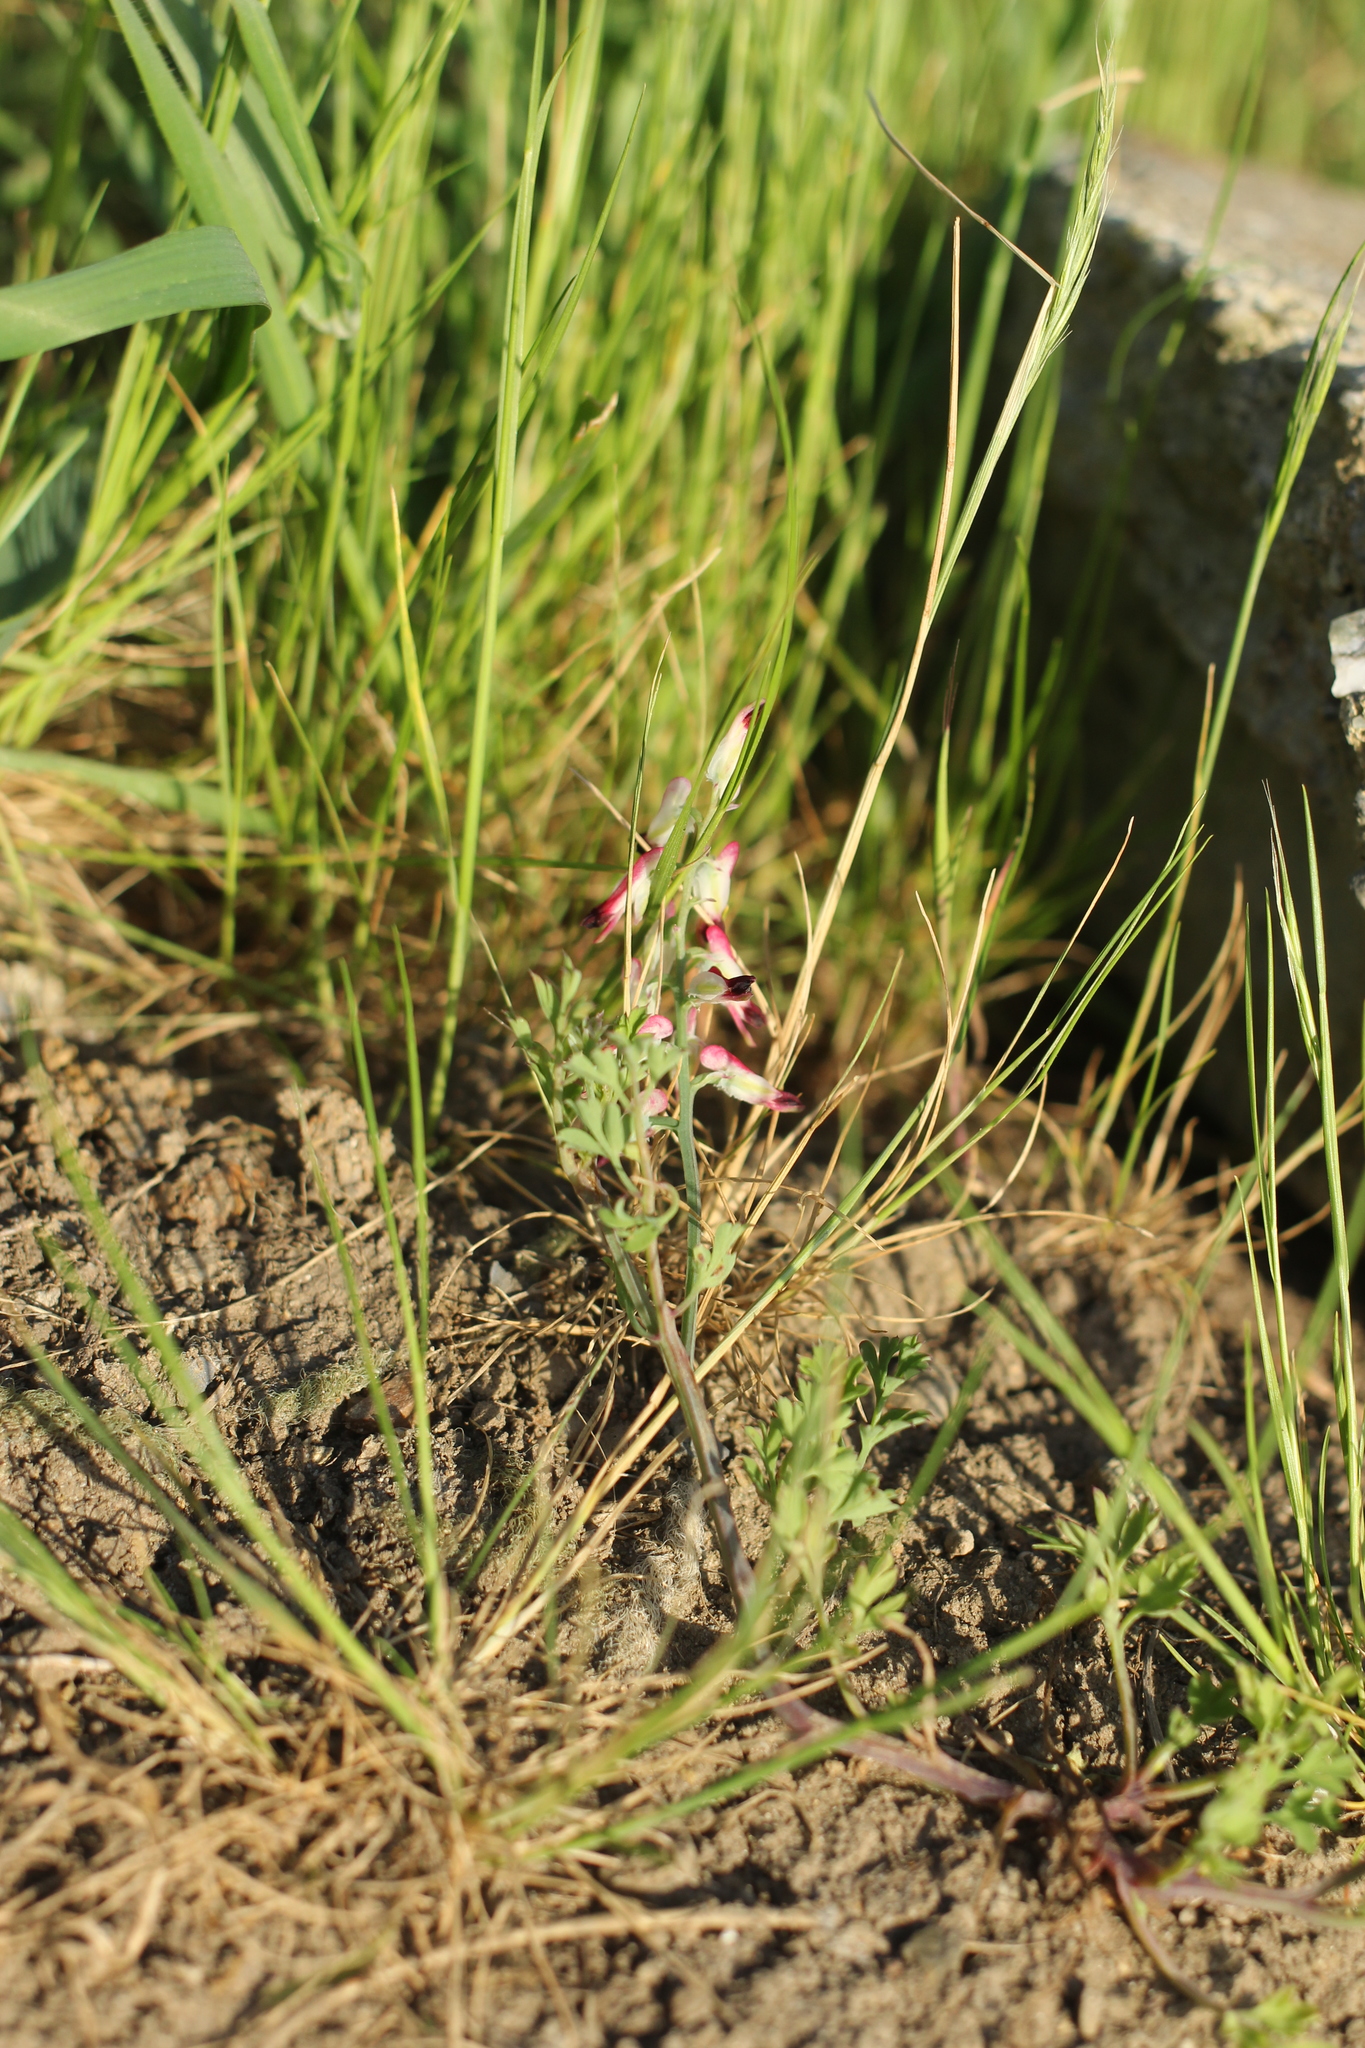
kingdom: Plantae
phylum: Tracheophyta
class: Magnoliopsida
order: Ranunculales
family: Papaveraceae
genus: Fumaria
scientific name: Fumaria capreolata
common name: White ramping-fumitory
